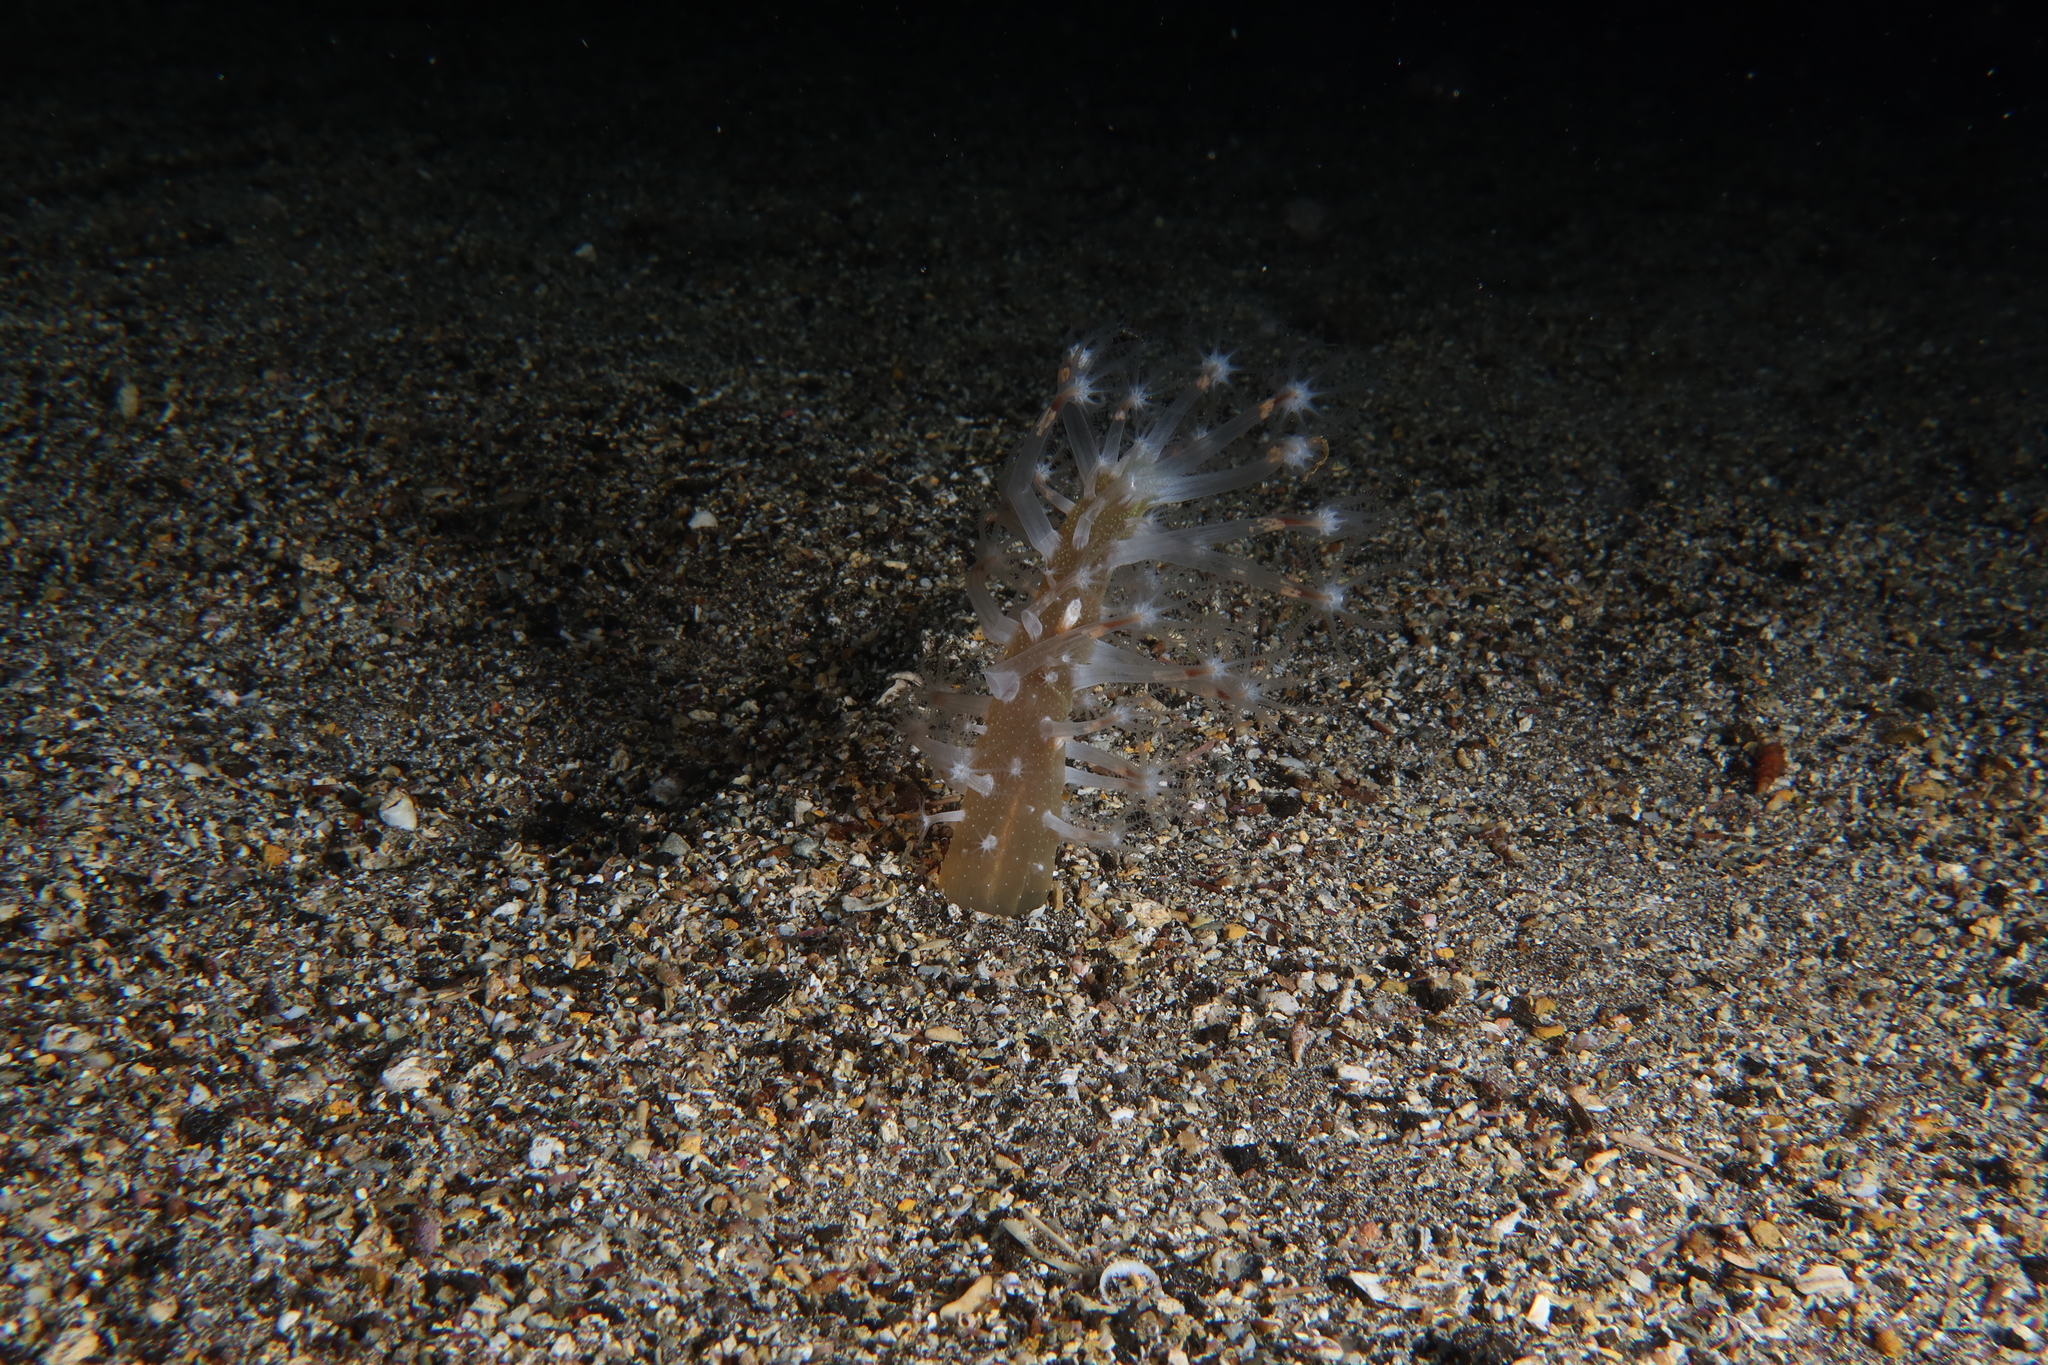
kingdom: Animalia
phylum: Cnidaria
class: Anthozoa
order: Scleralcyonacea
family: Veretillidae
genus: Veretillum
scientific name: Veretillum cynomorium
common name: Finger-shaped sea-pen
